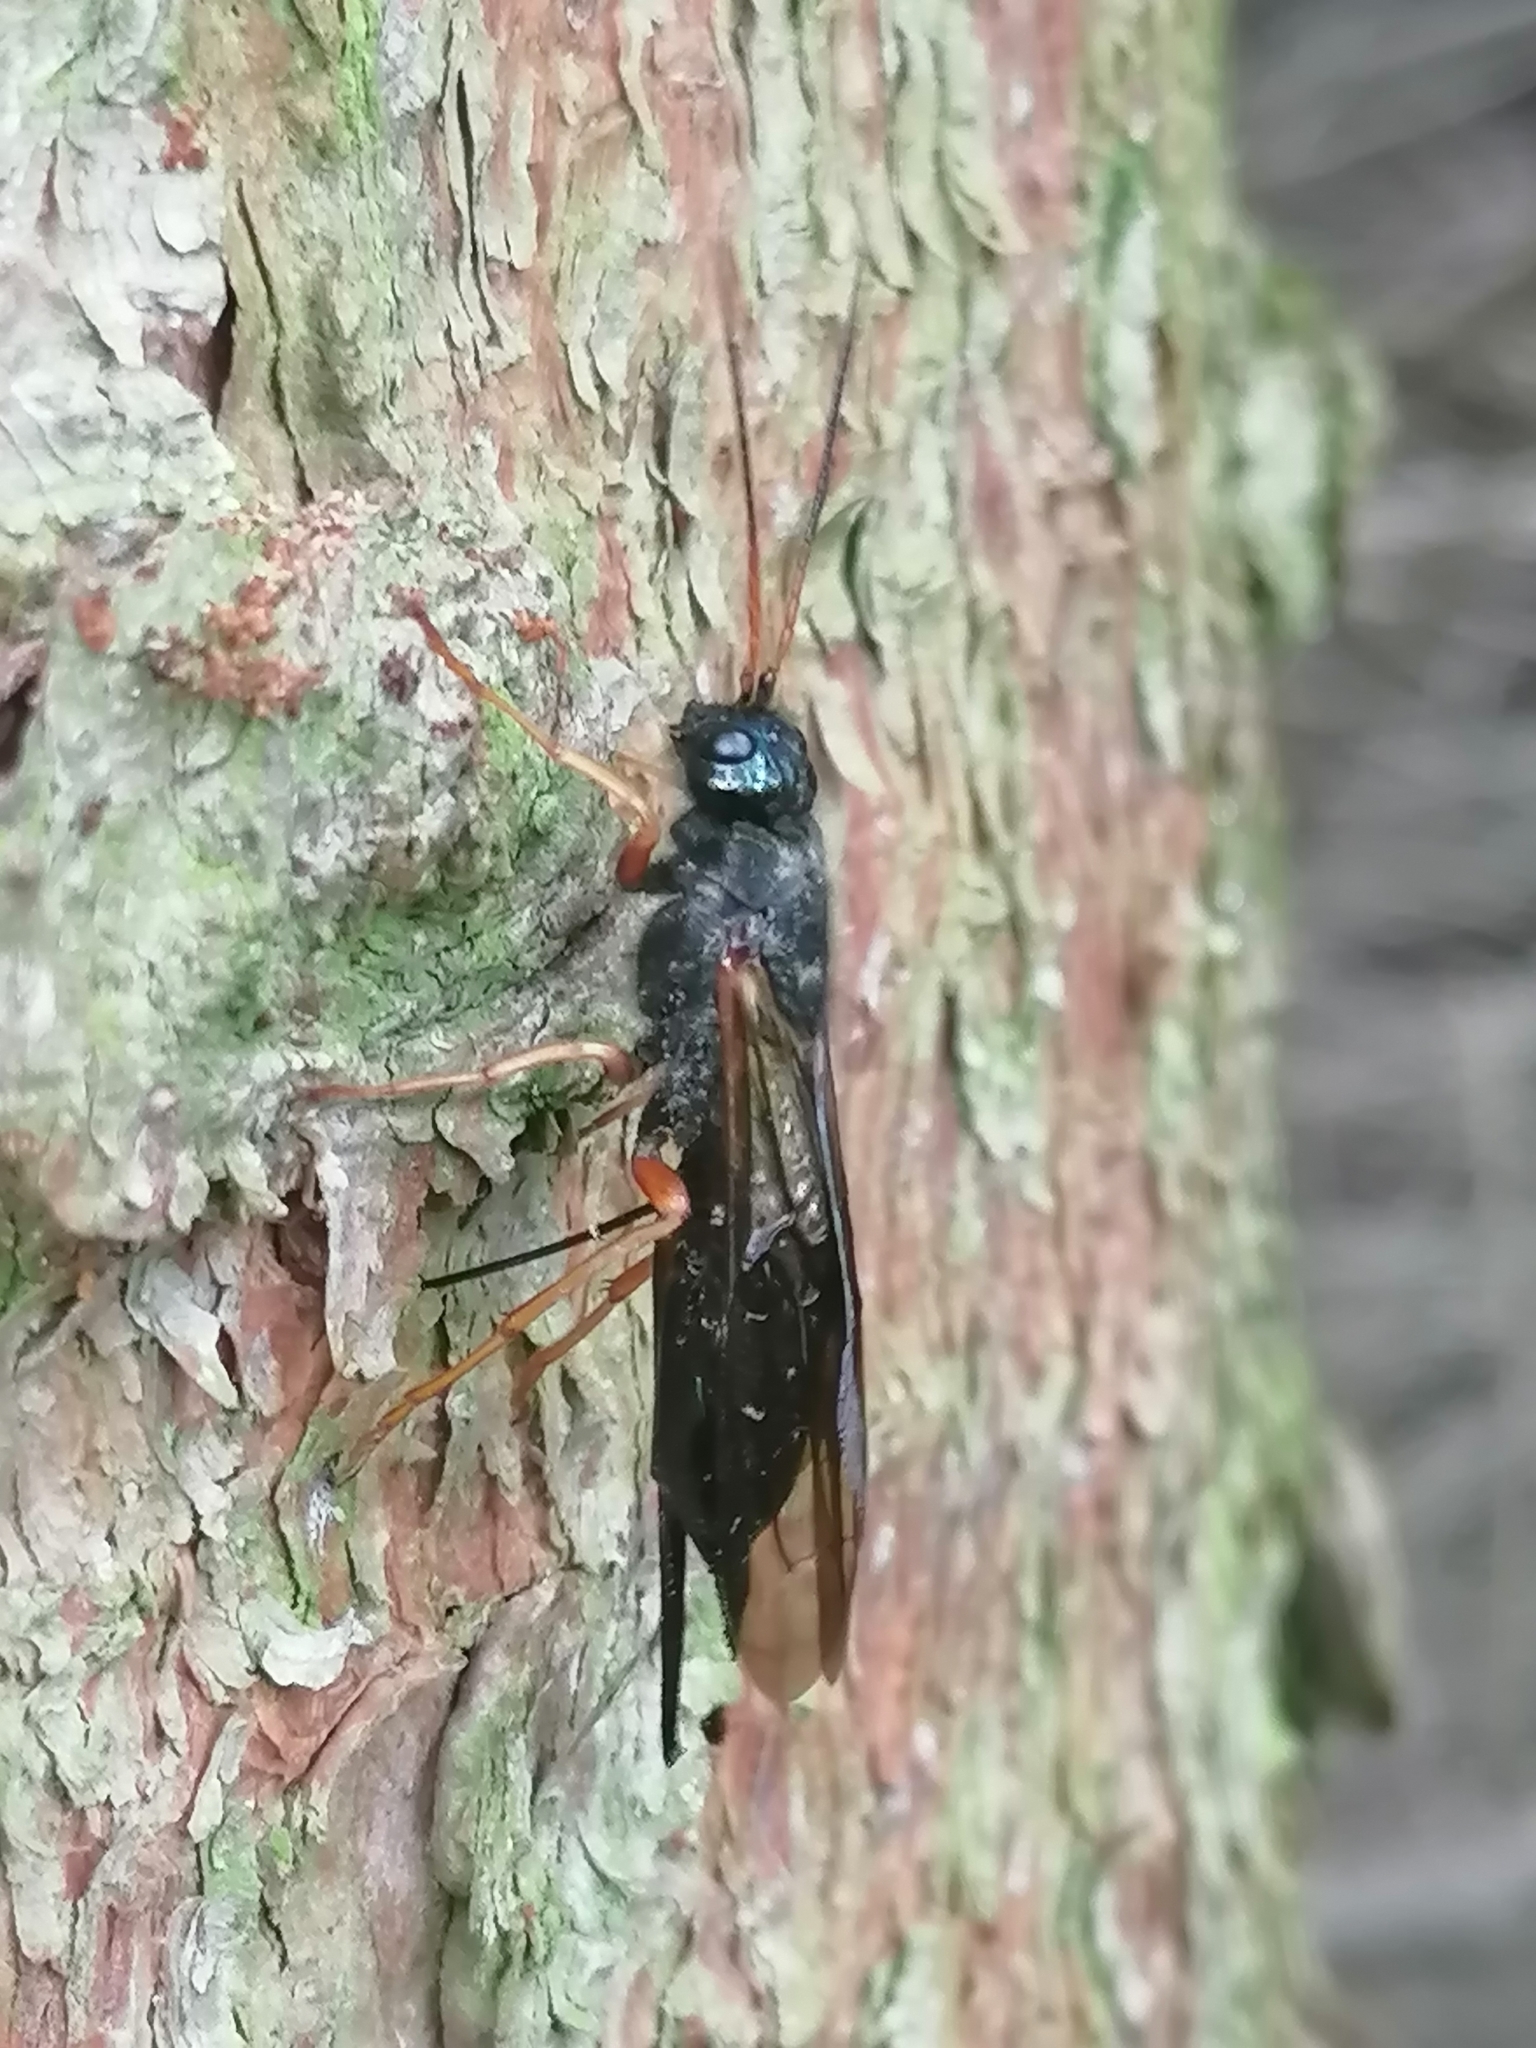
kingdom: Animalia
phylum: Arthropoda
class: Insecta
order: Hymenoptera
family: Siricidae
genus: Sirex
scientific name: Sirex juvencus
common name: Blue horntail
